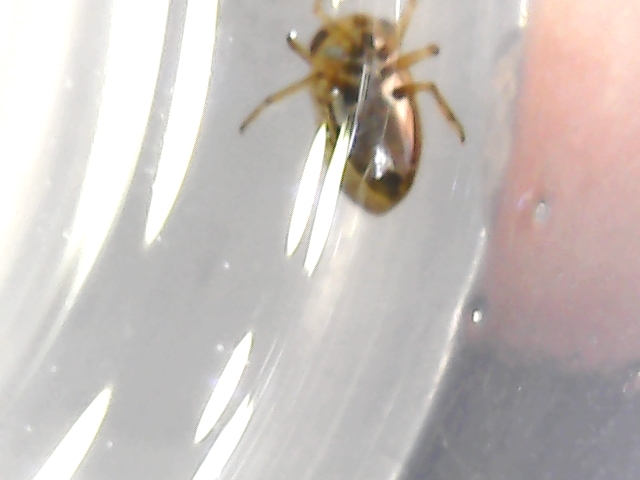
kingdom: Animalia
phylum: Arthropoda
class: Insecta
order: Hemiptera
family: Pleidae
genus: Plea
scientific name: Plea minutissima
